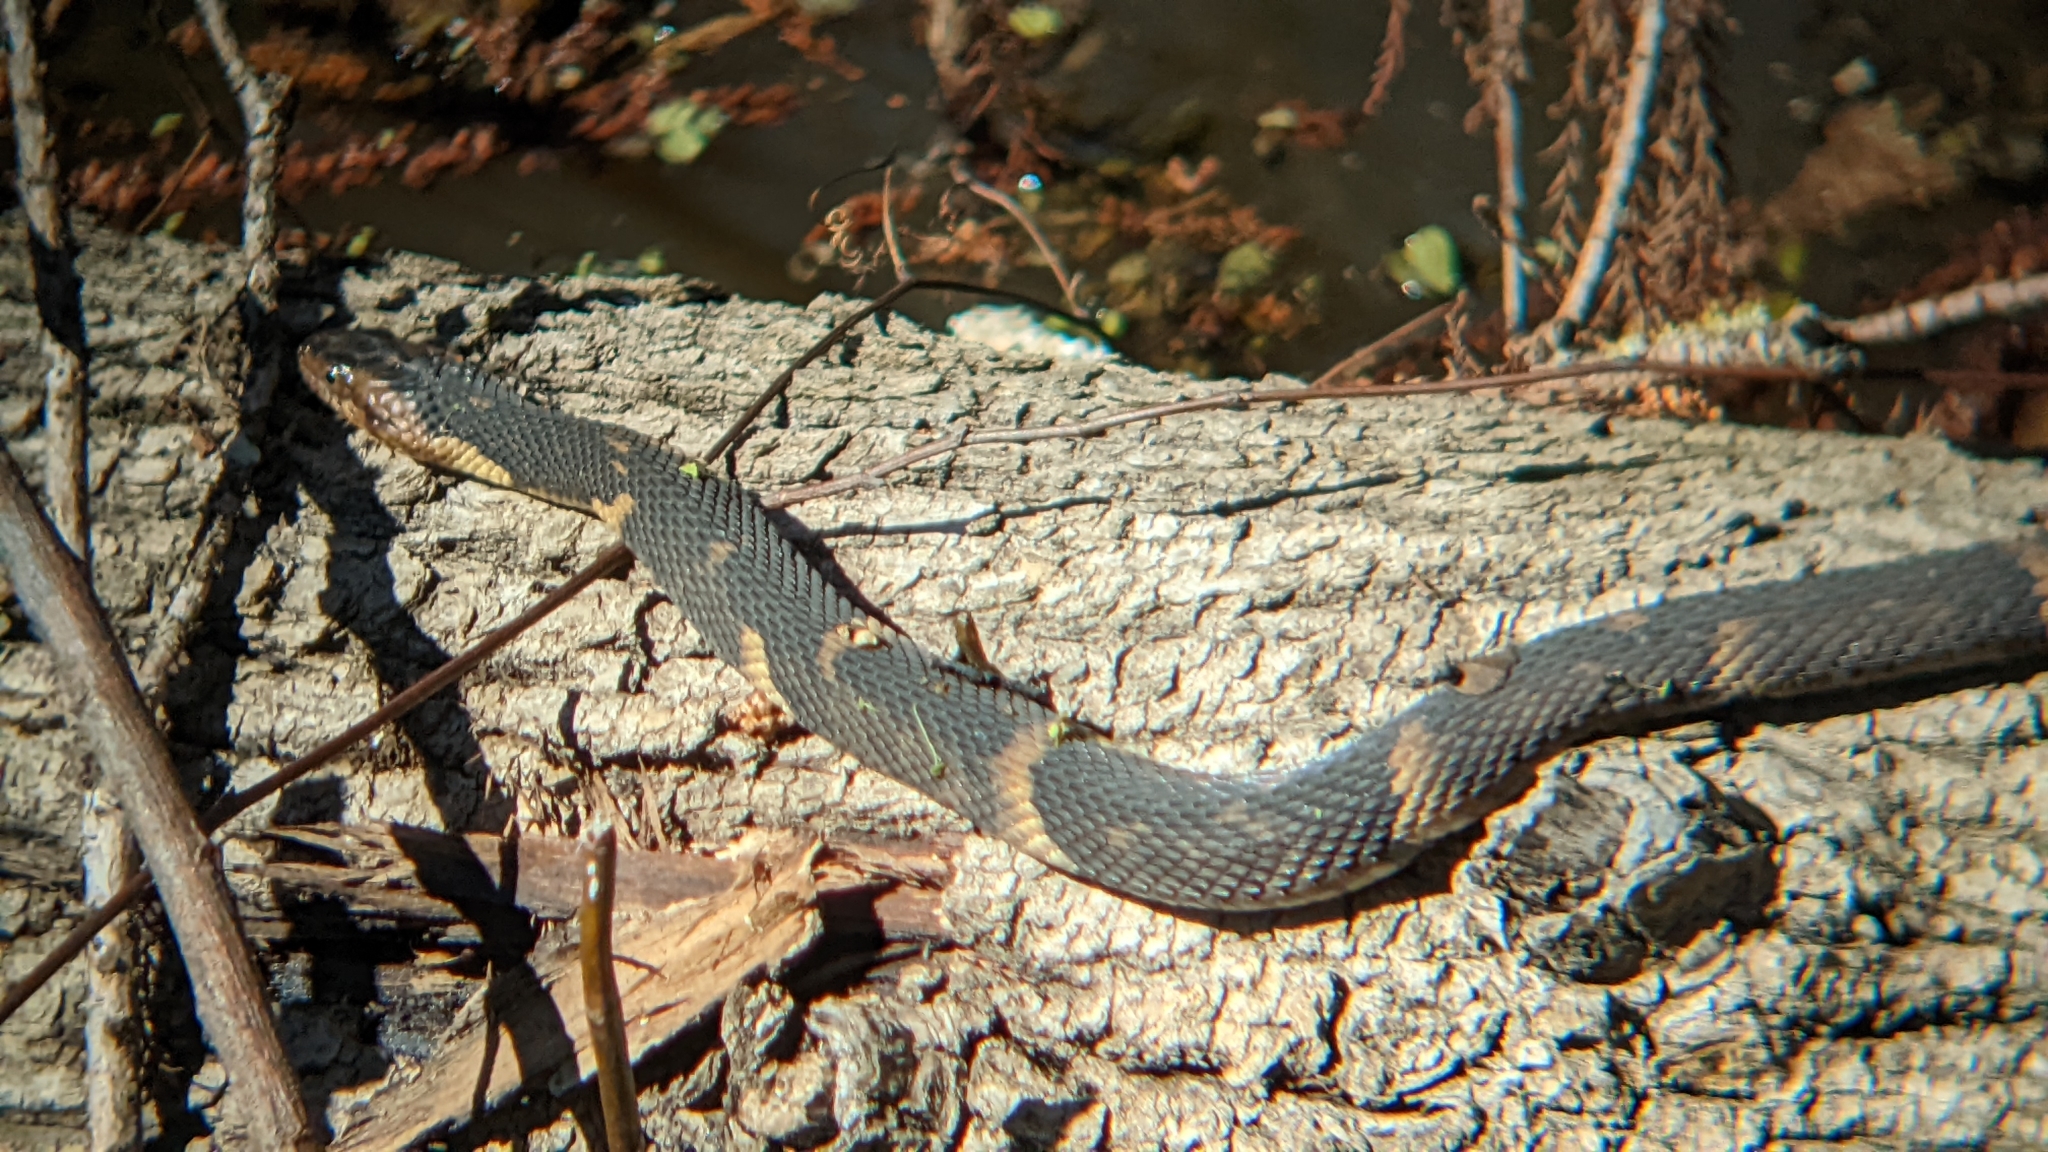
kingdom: Animalia
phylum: Chordata
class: Squamata
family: Colubridae
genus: Nerodia
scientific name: Nerodia fasciata
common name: Southern water snake
